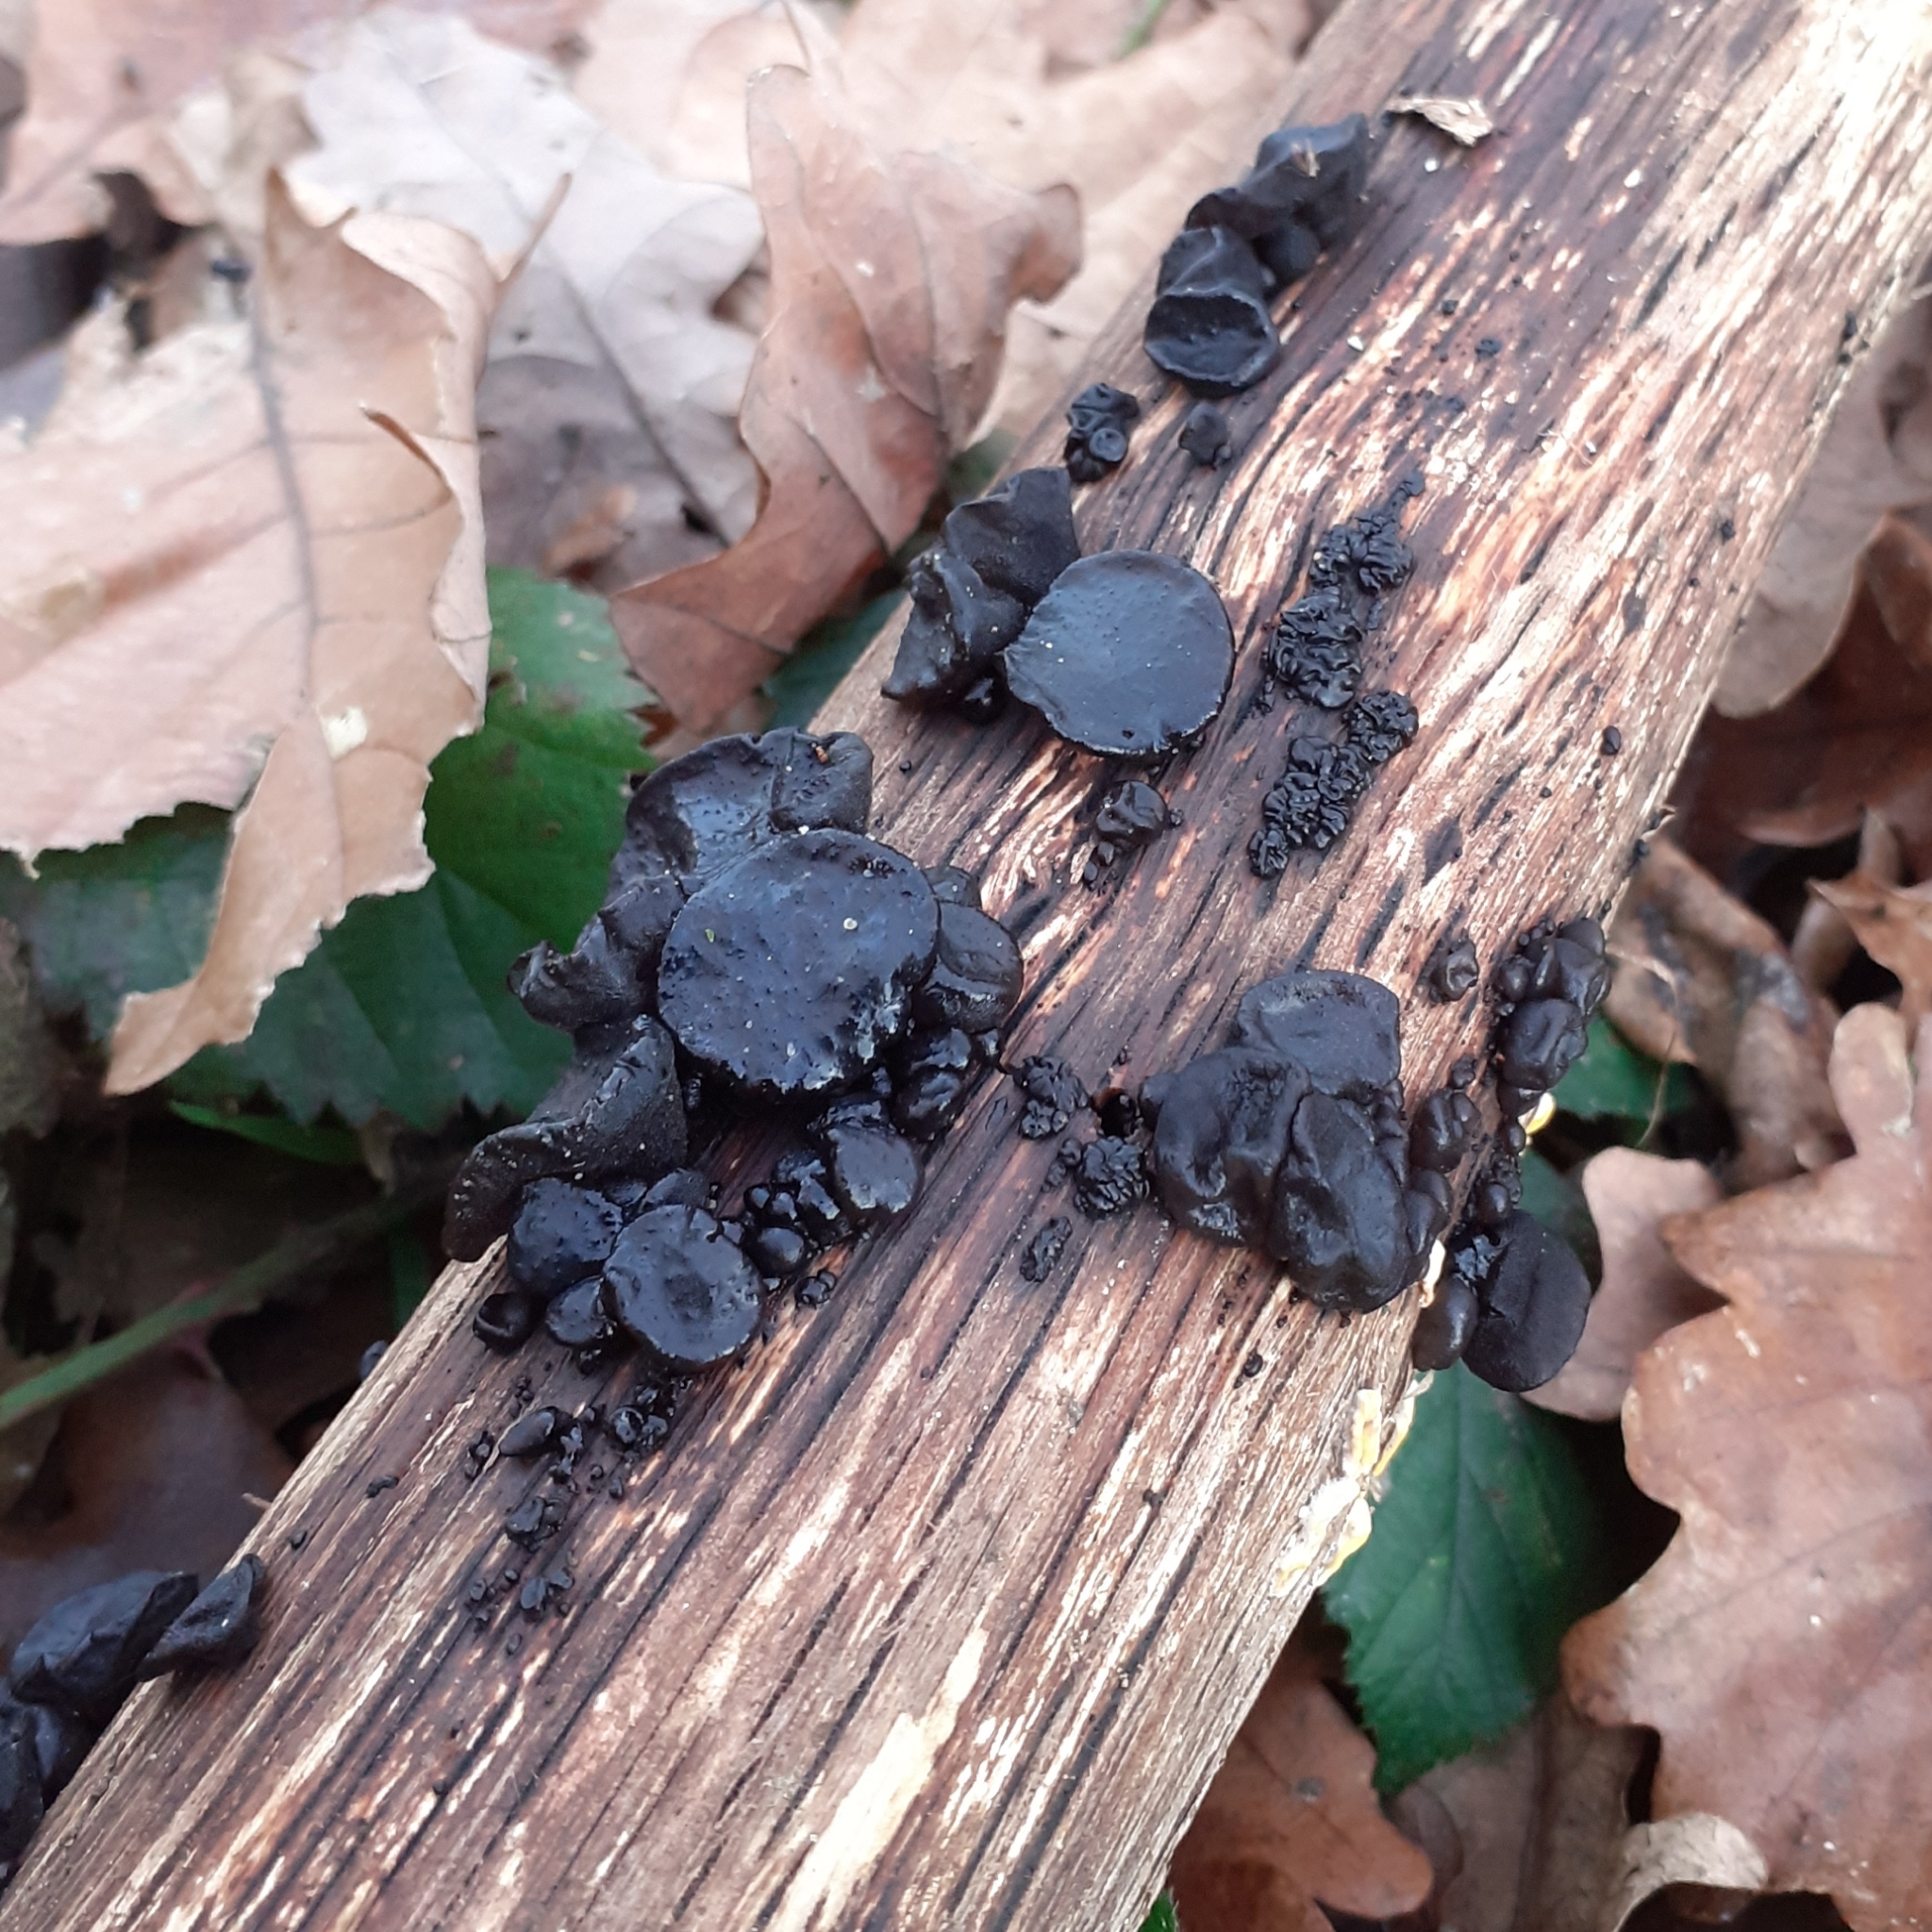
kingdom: Fungi
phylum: Basidiomycota
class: Agaricomycetes
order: Auriculariales
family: Auriculariaceae
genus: Exidia
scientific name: Exidia glandulosa
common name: Witches' butter
